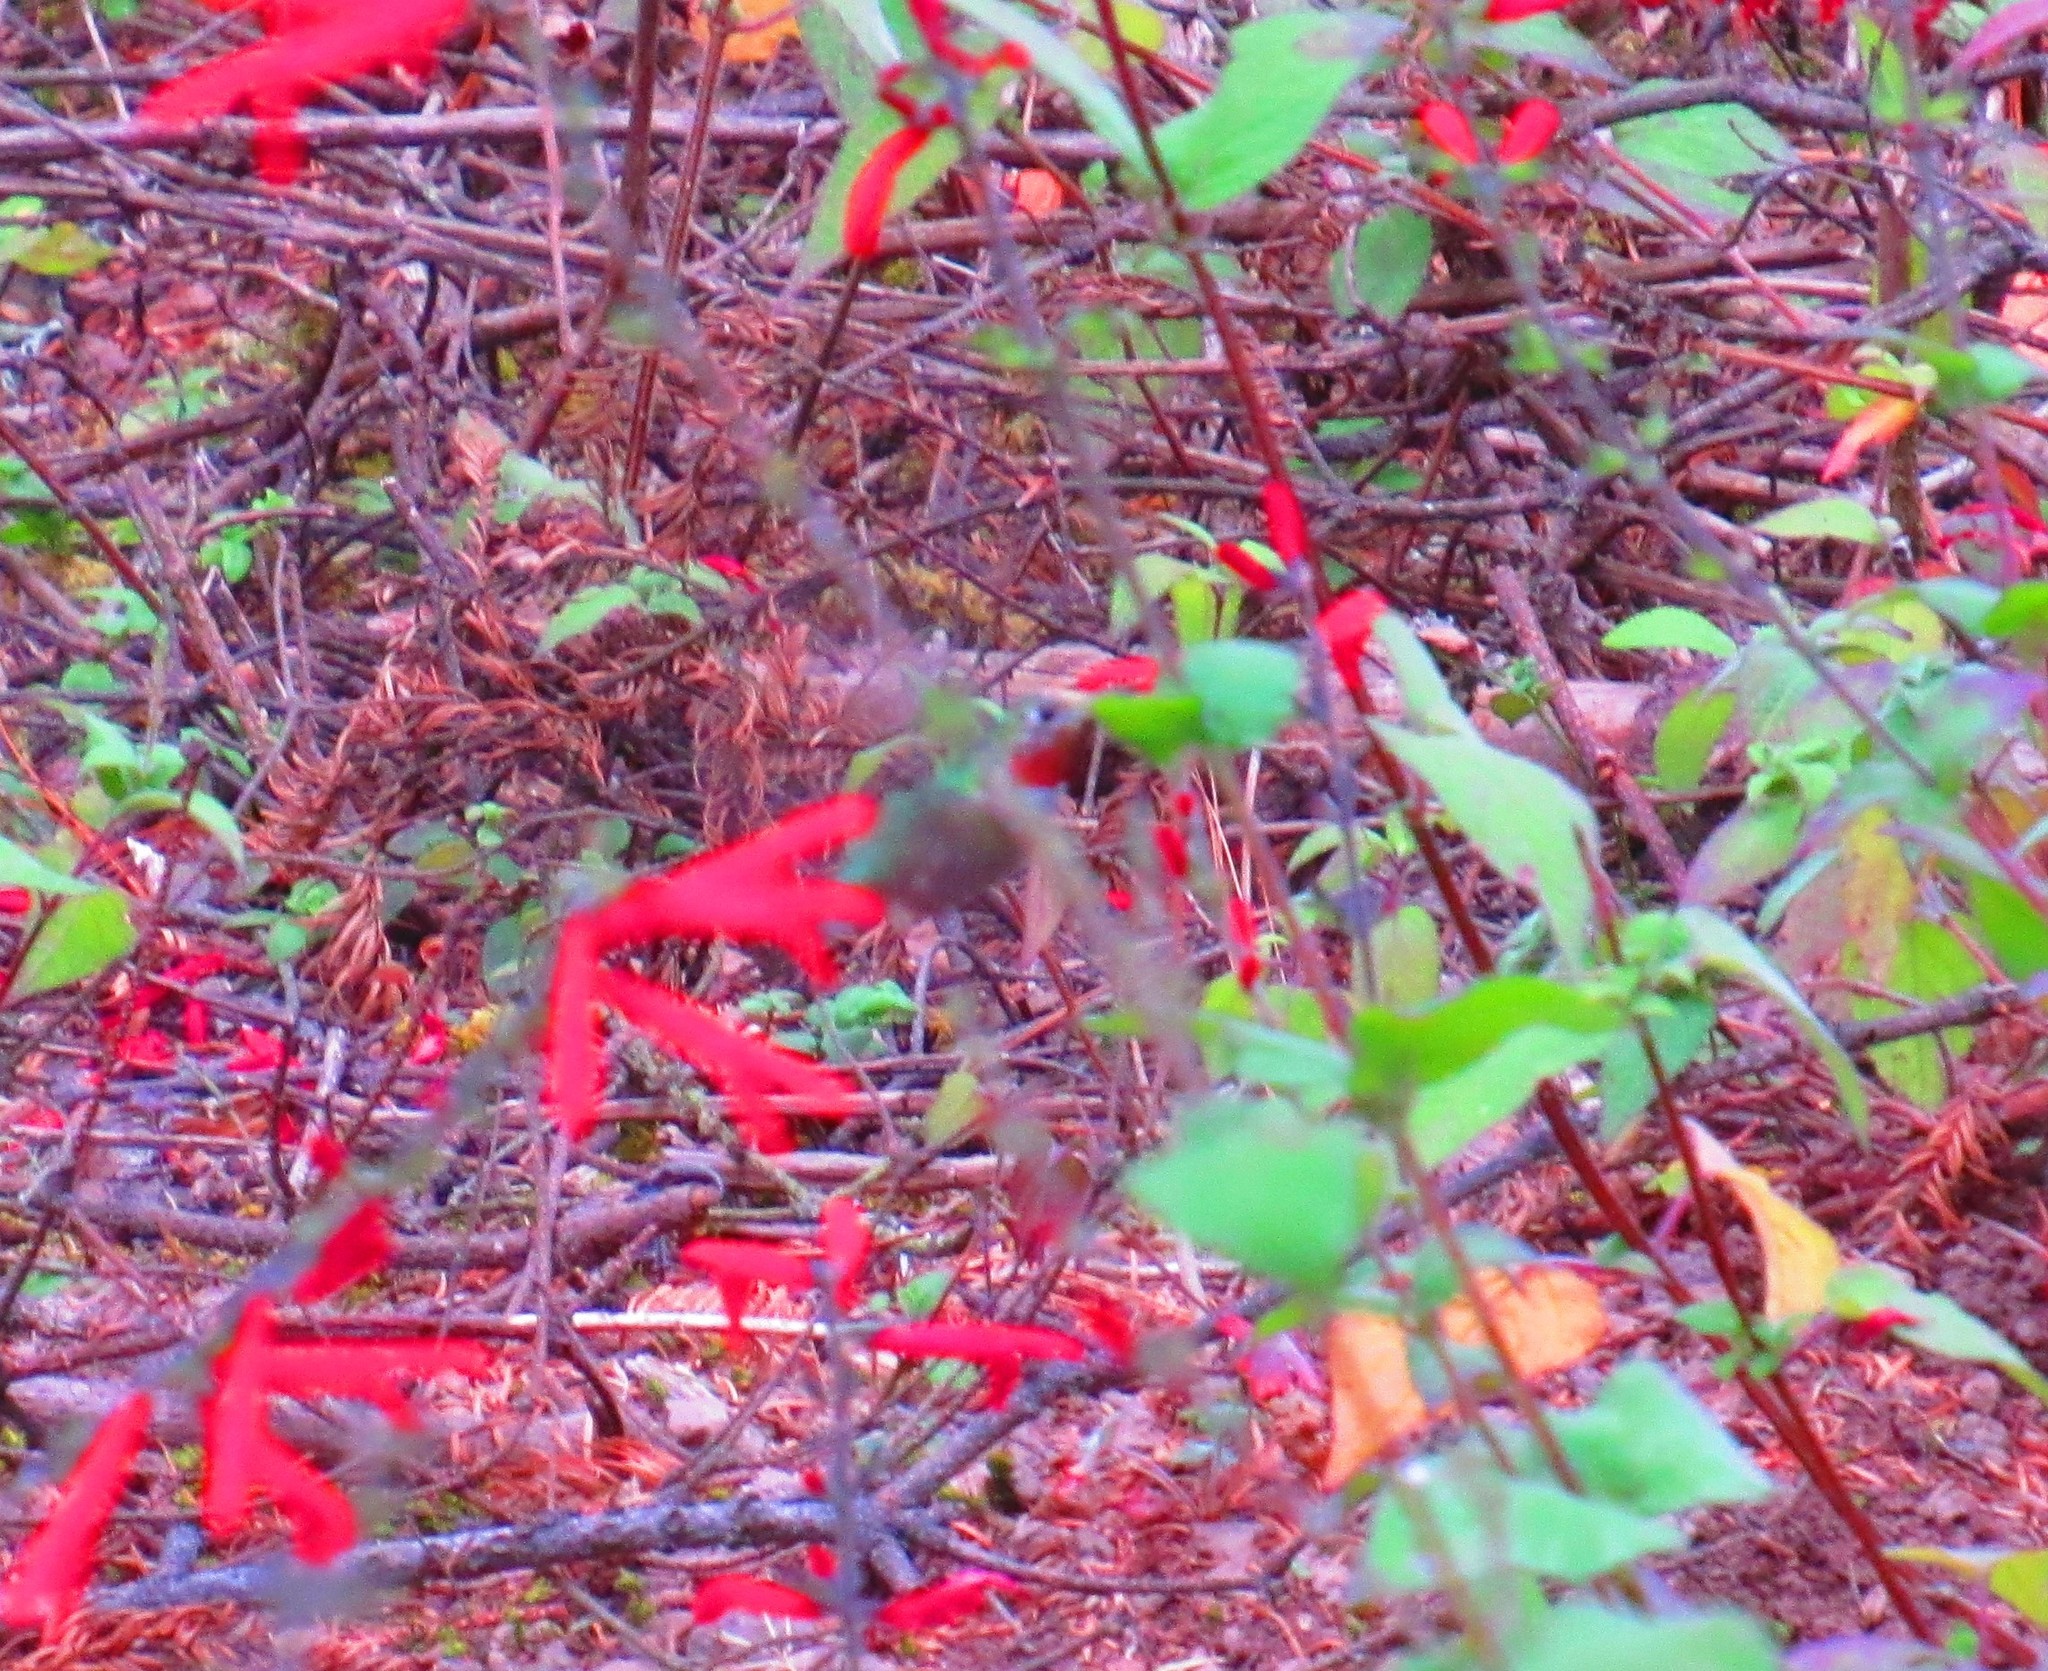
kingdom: Animalia
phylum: Chordata
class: Aves
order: Apodiformes
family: Trochilidae
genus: Selasphorus
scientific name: Selasphorus platycercus
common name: Broad-tailed hummingbird
